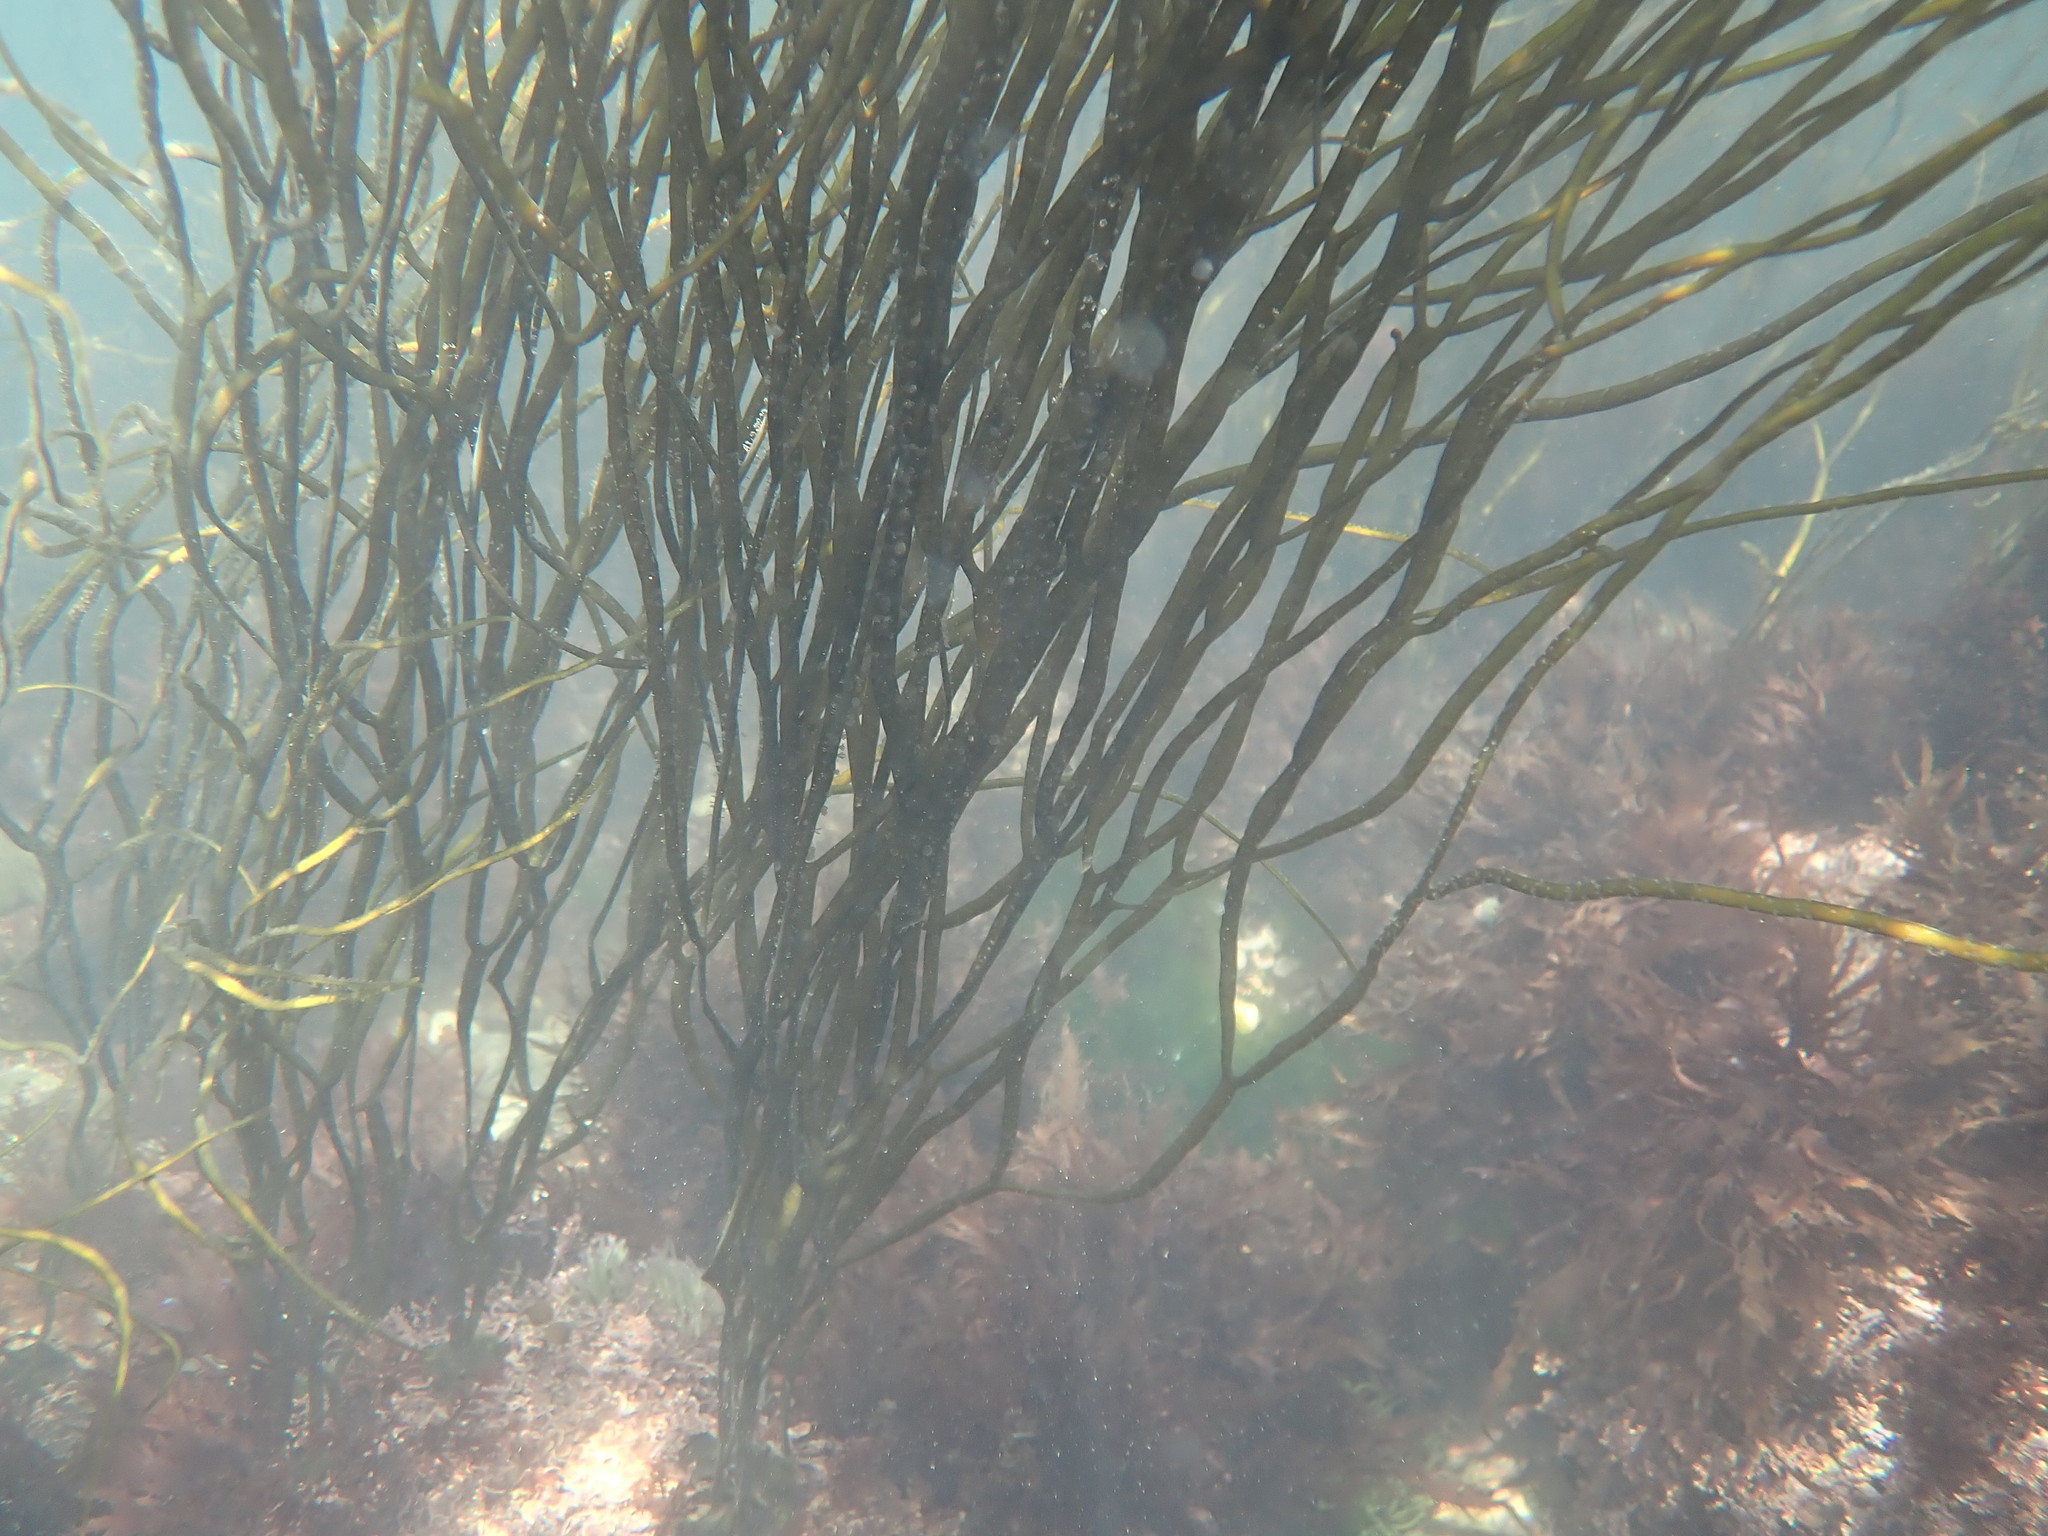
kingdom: Chromista
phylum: Ochrophyta
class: Phaeophyceae
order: Fucales
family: Himanthaliaceae
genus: Himanthalia
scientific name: Himanthalia elongata
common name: Sea-thong
